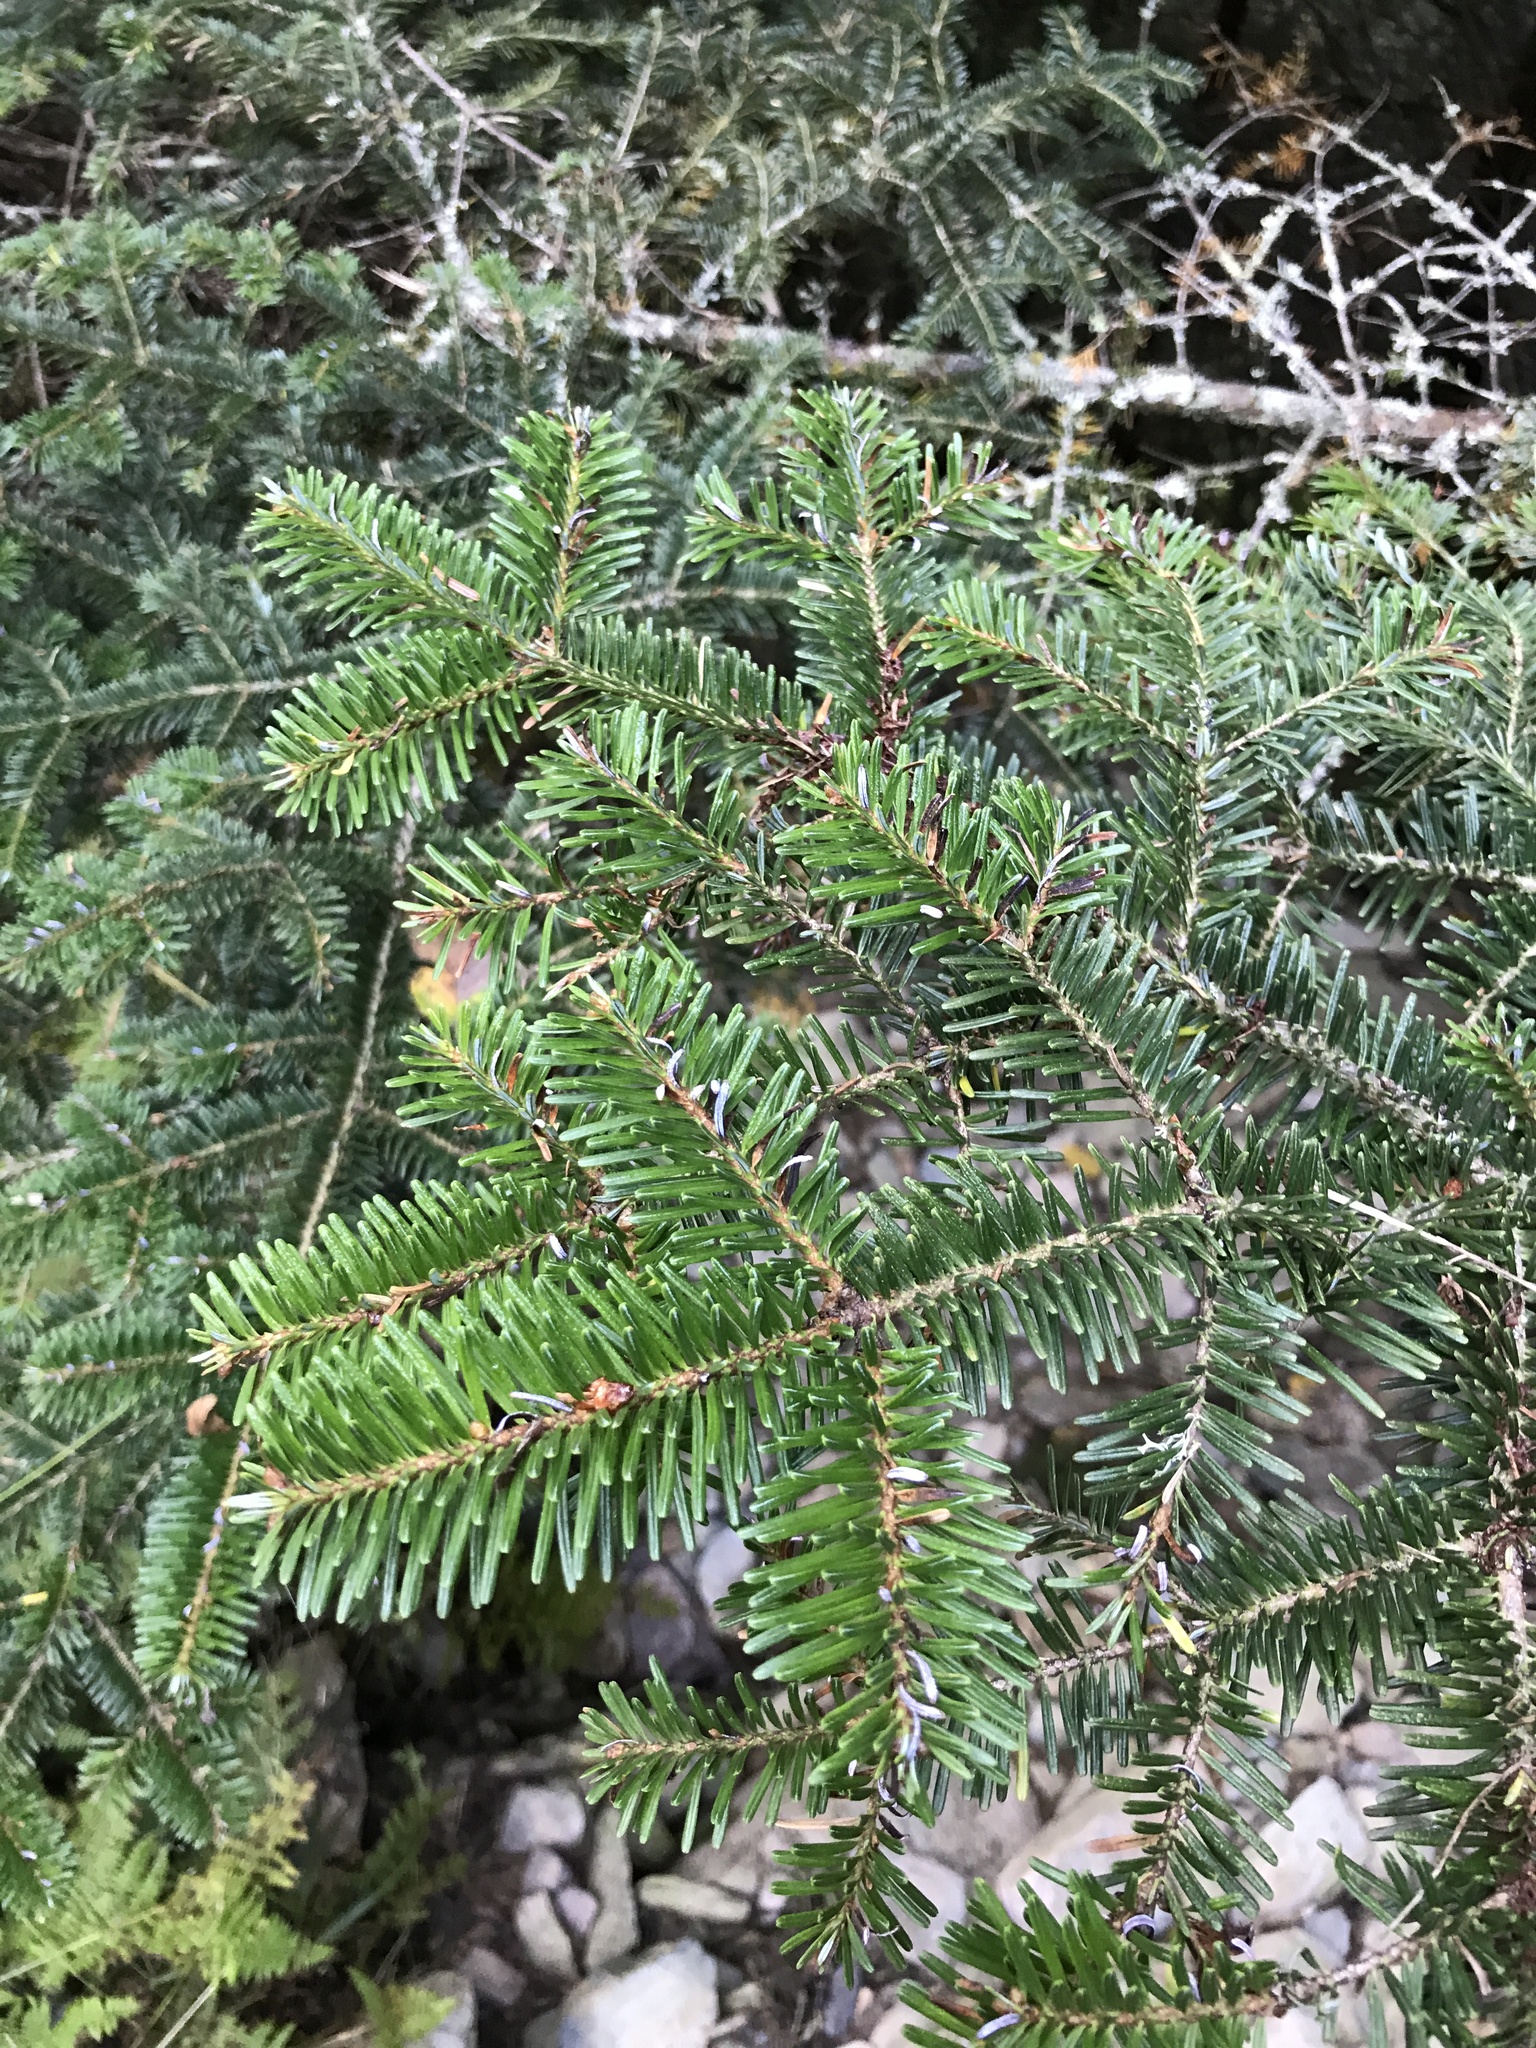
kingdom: Plantae
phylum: Tracheophyta
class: Pinopsida
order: Pinales
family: Pinaceae
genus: Abies
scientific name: Abies fraseri
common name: Fraser fir
